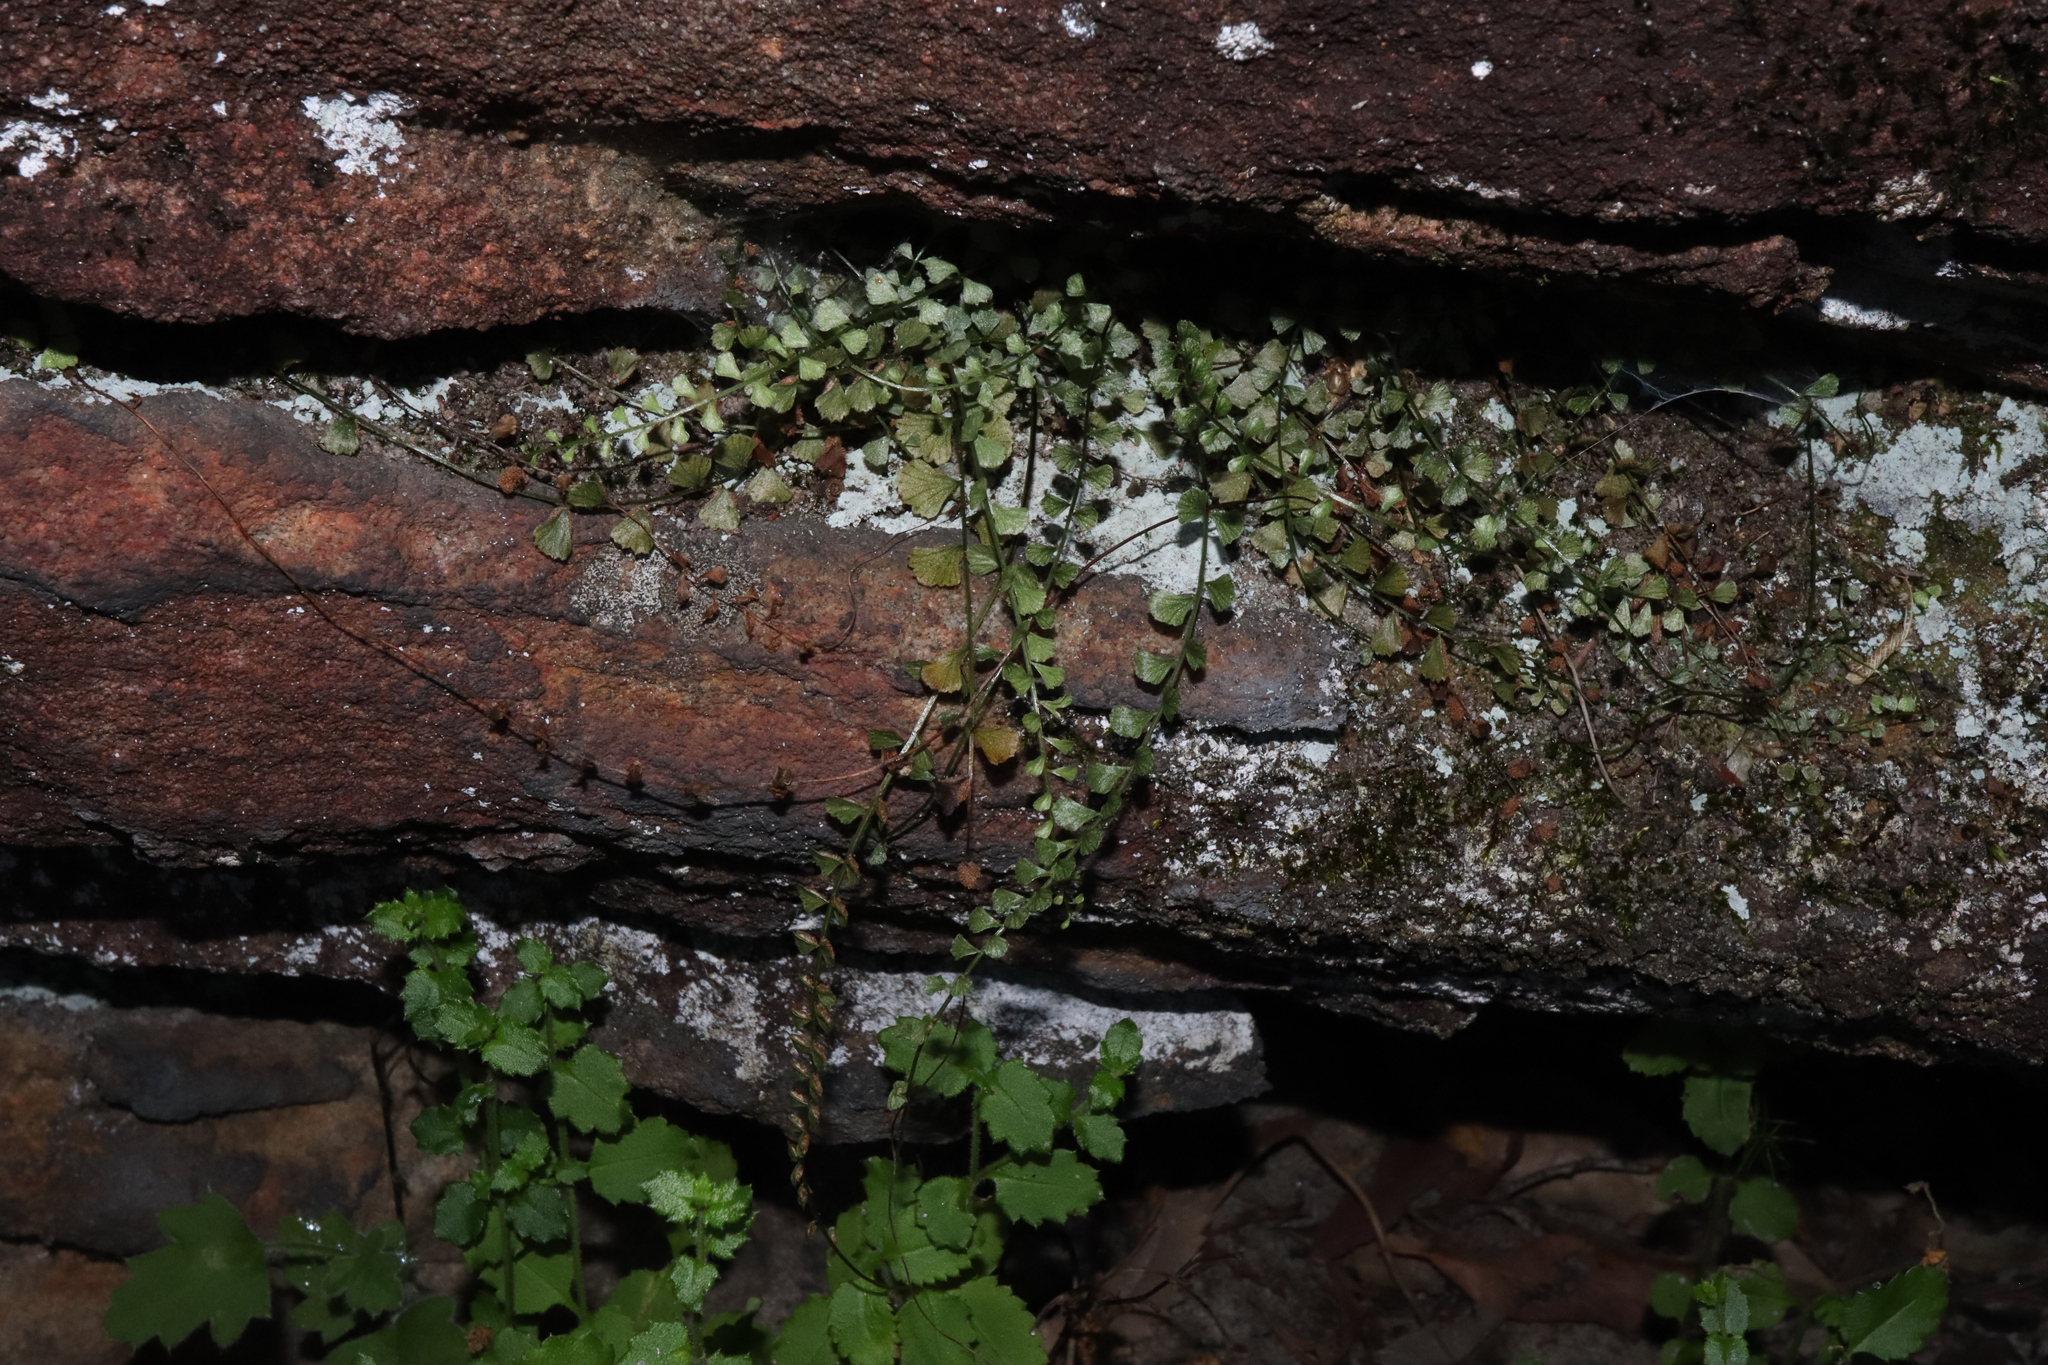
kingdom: Plantae
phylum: Tracheophyta
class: Polypodiopsida
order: Polypodiales
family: Aspleniaceae
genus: Asplenium
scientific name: Asplenium flabellifolium
